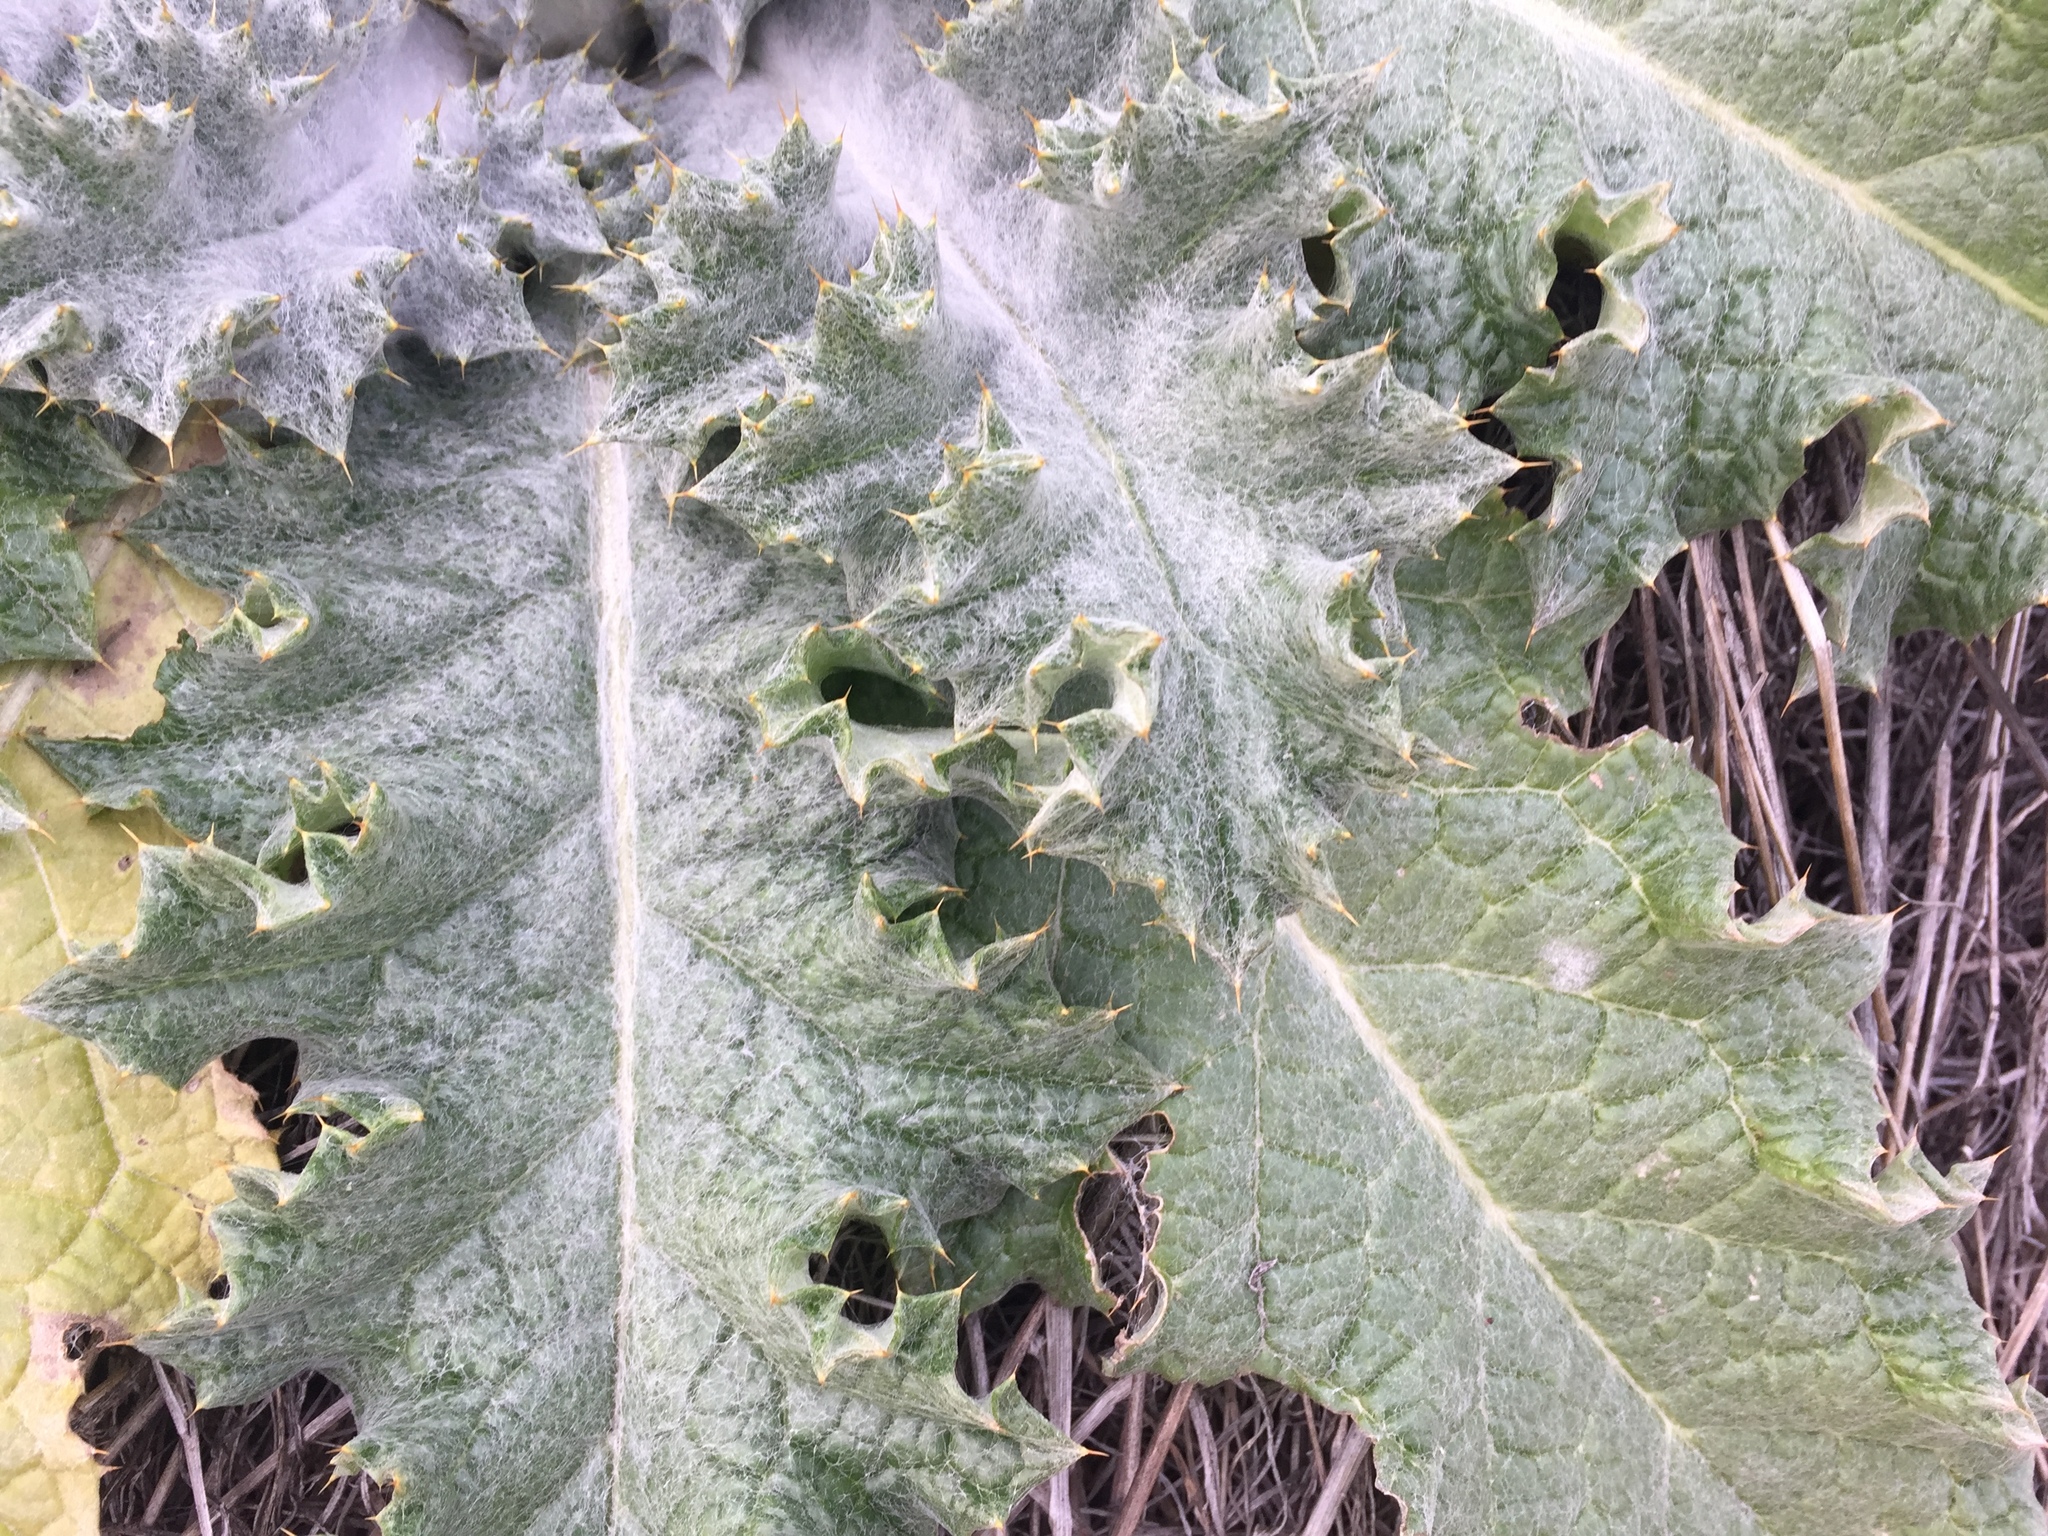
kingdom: Plantae
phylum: Tracheophyta
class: Magnoliopsida
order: Asterales
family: Asteraceae
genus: Onopordum
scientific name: Onopordum acanthium
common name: Scotch thistle
